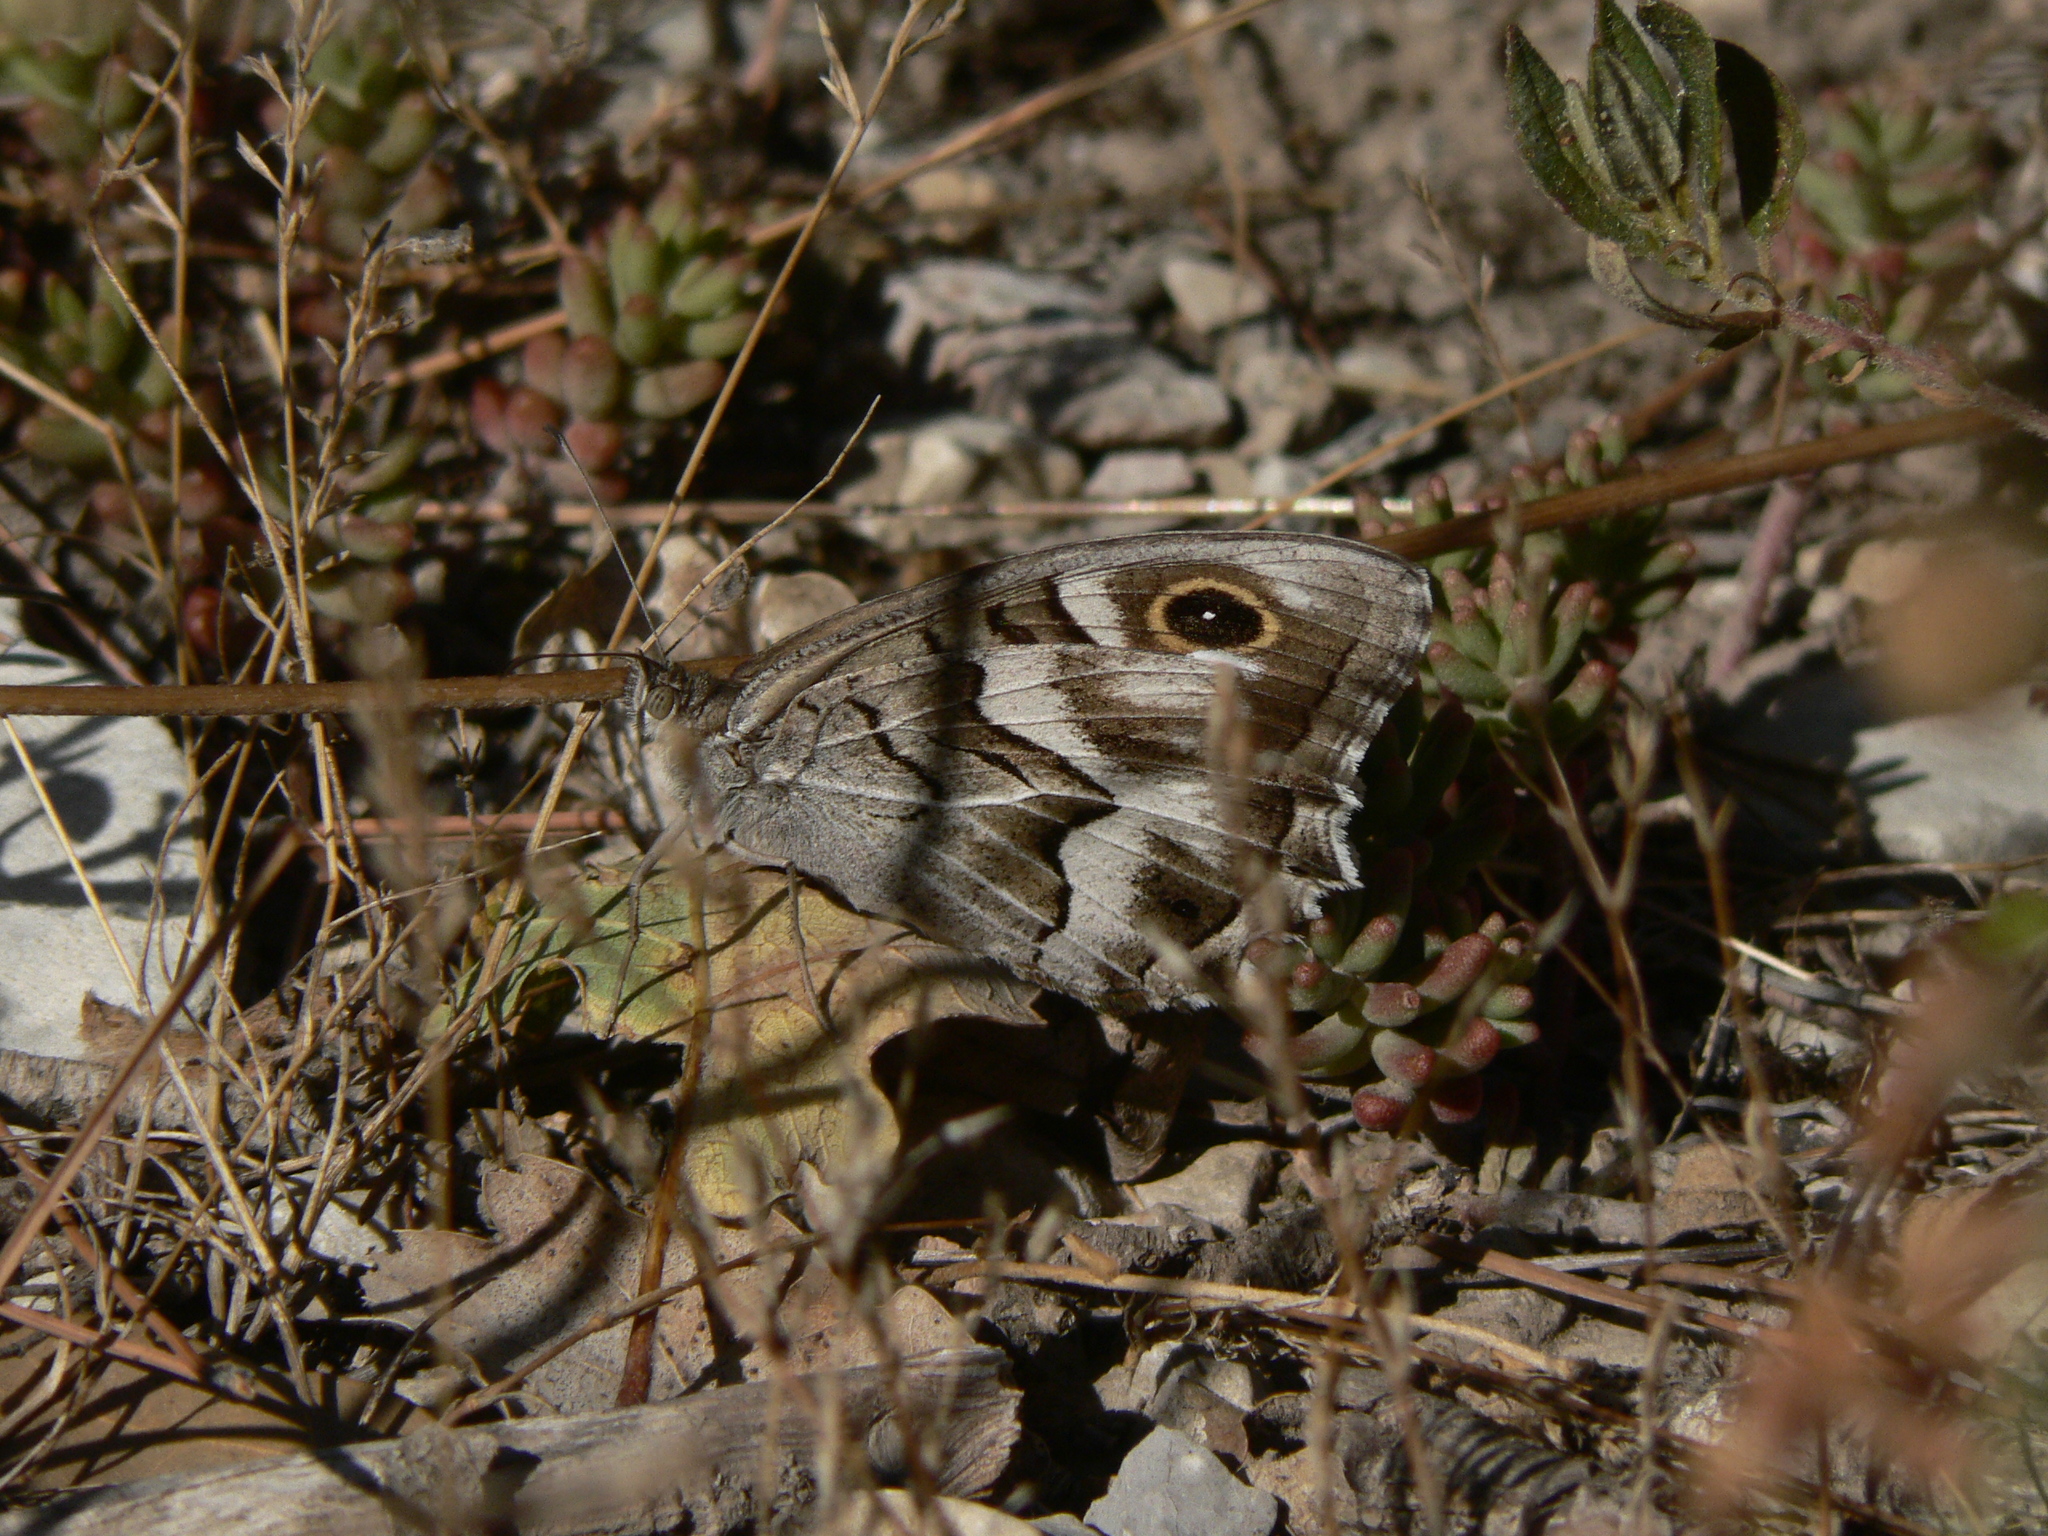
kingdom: Animalia
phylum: Arthropoda
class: Insecta
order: Lepidoptera
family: Nymphalidae
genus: Hipparchia
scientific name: Hipparchia fidia
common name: Striped grayling
